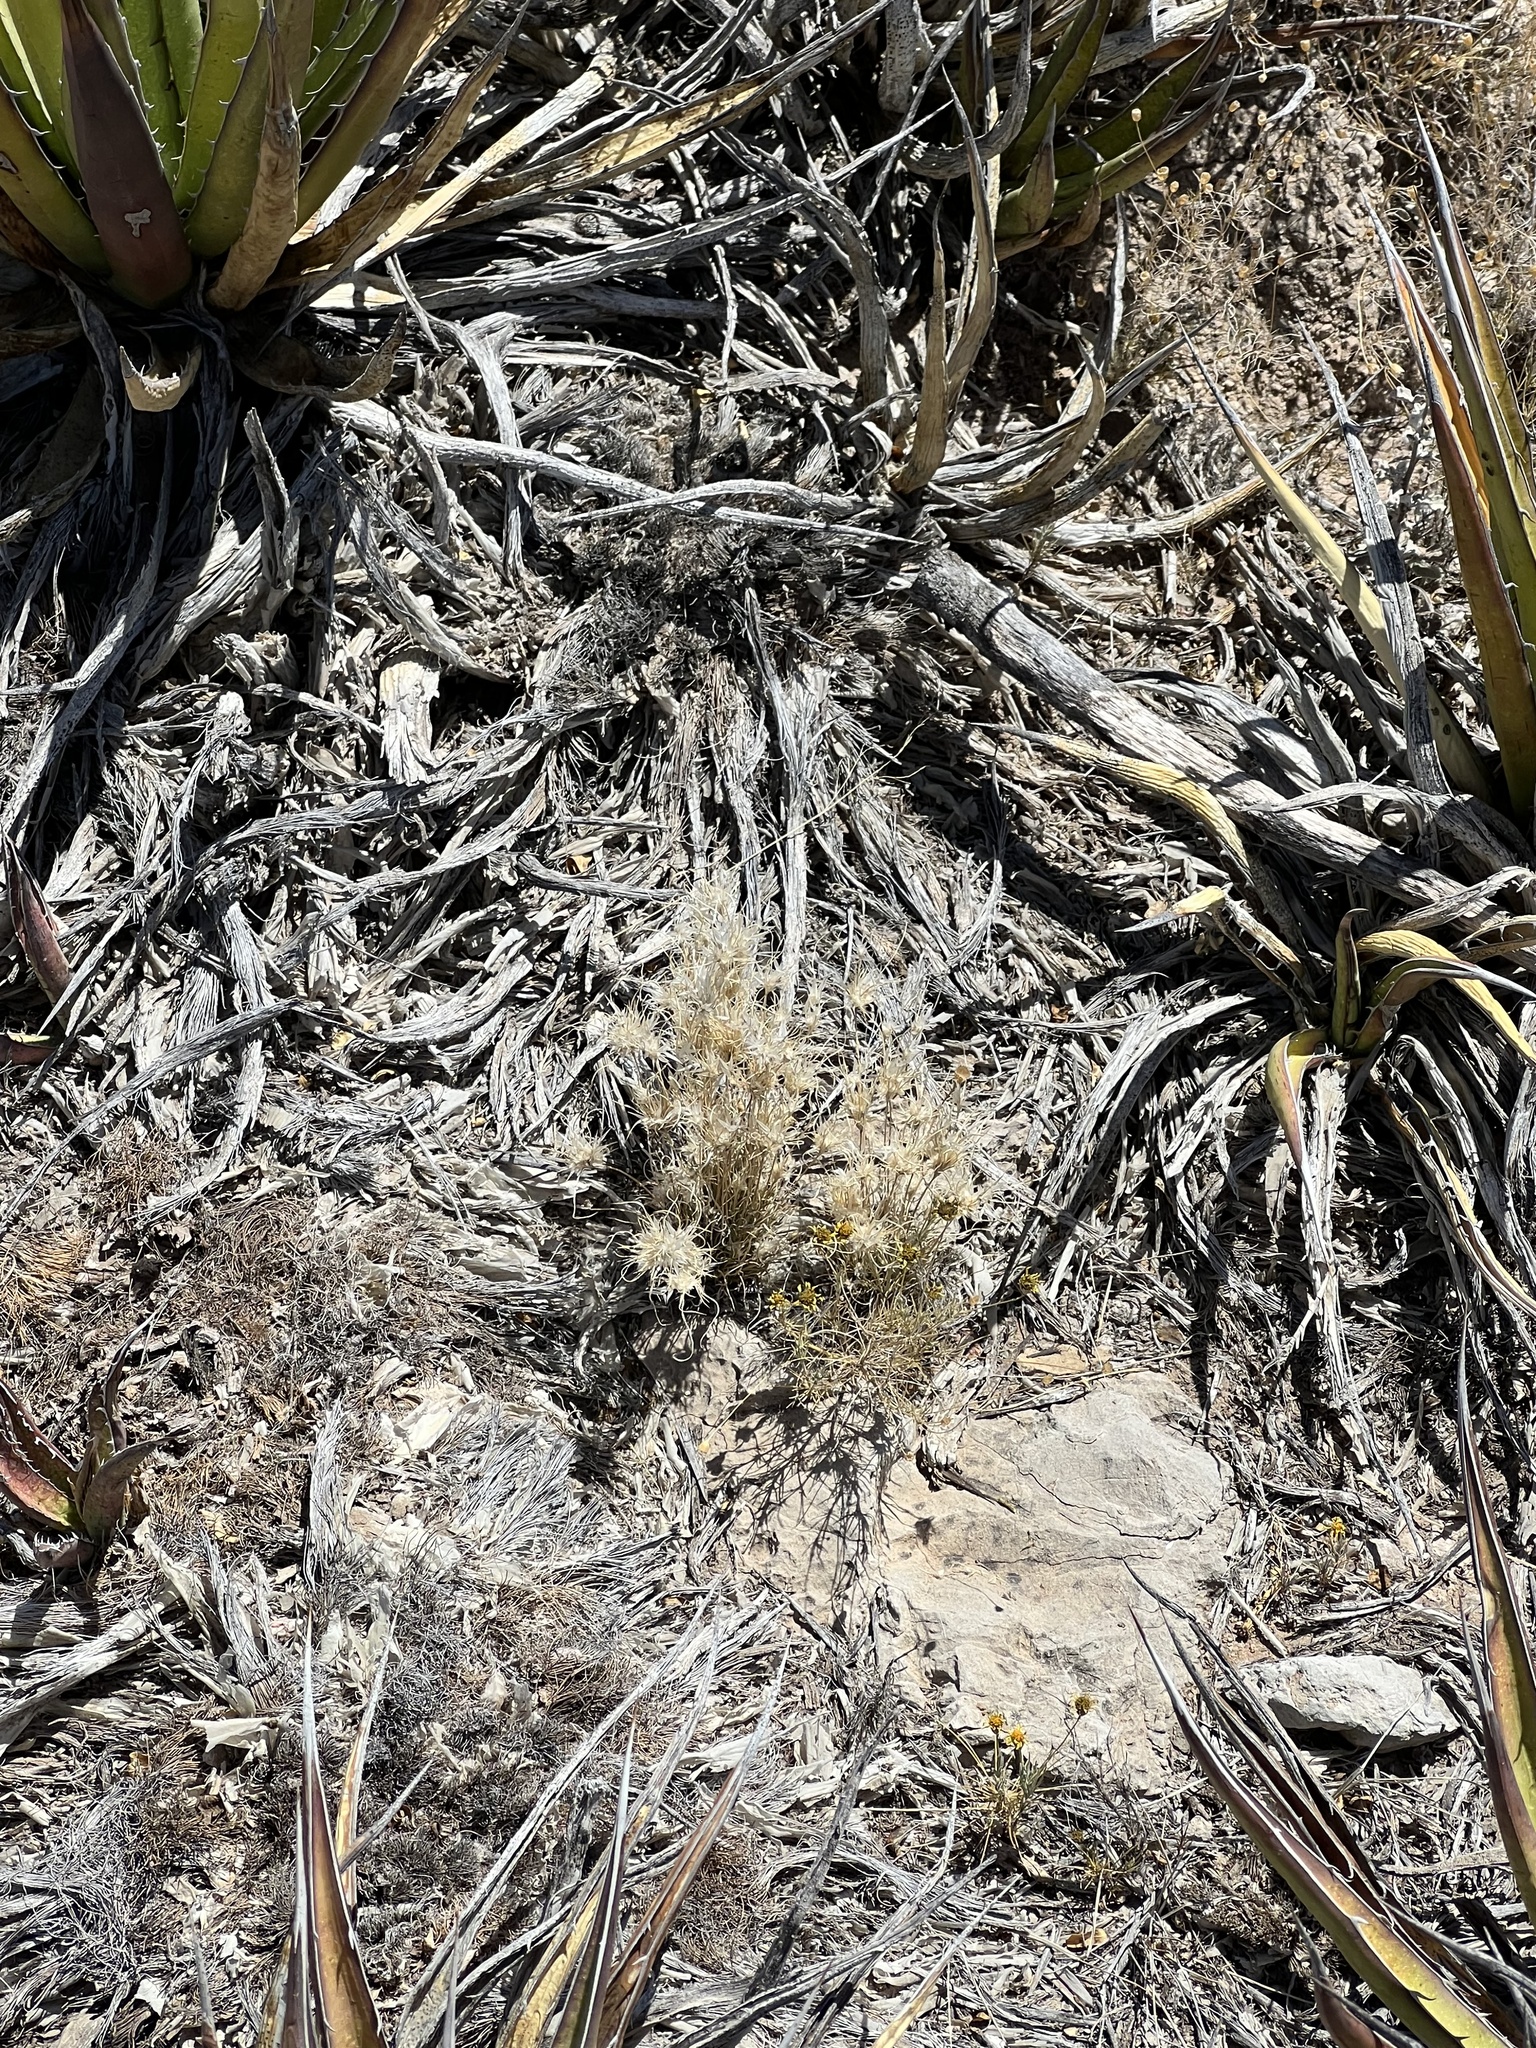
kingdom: Plantae
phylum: Tracheophyta
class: Liliopsida
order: Poales
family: Poaceae
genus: Dasyochloa
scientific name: Dasyochloa pulchella
